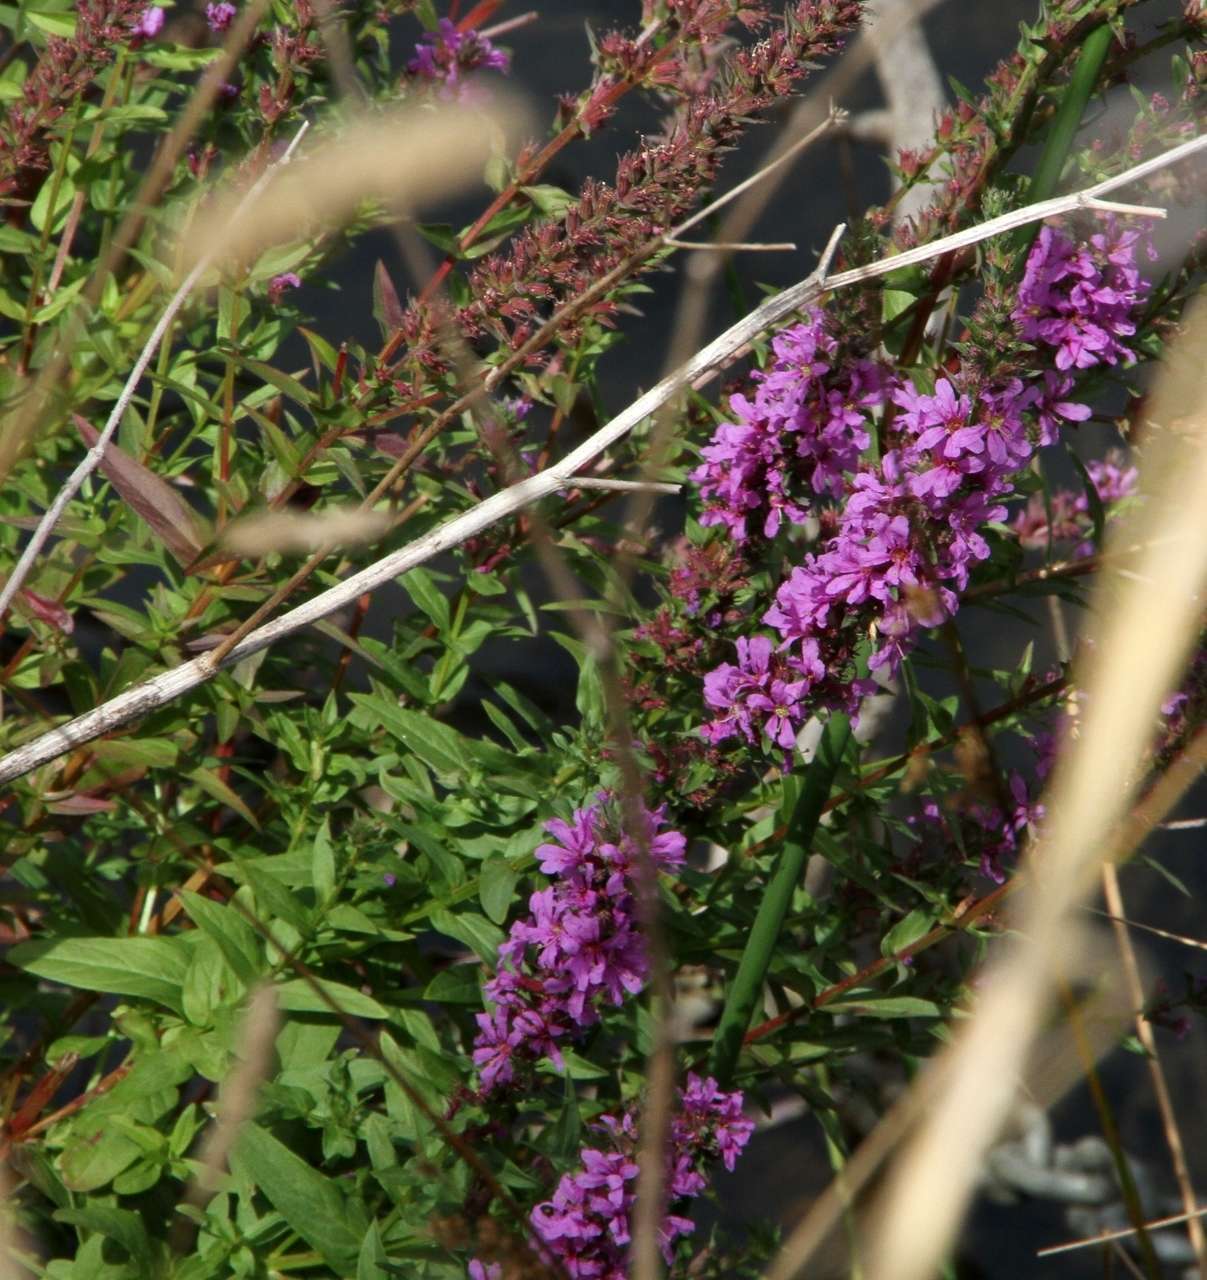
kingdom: Plantae
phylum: Tracheophyta
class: Magnoliopsida
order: Myrtales
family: Lythraceae
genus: Lythrum
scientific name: Lythrum salicaria
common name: Purple loosestrife
